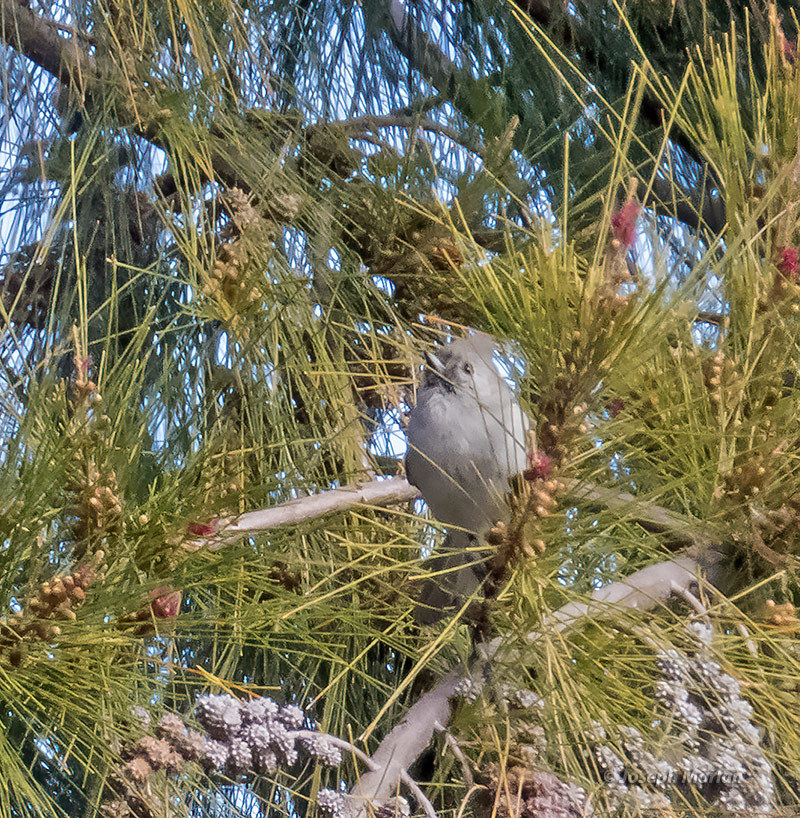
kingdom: Animalia
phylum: Chordata
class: Aves
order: Passeriformes
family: Paridae
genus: Baeolophus
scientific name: Baeolophus inornatus
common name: Oak titmouse
